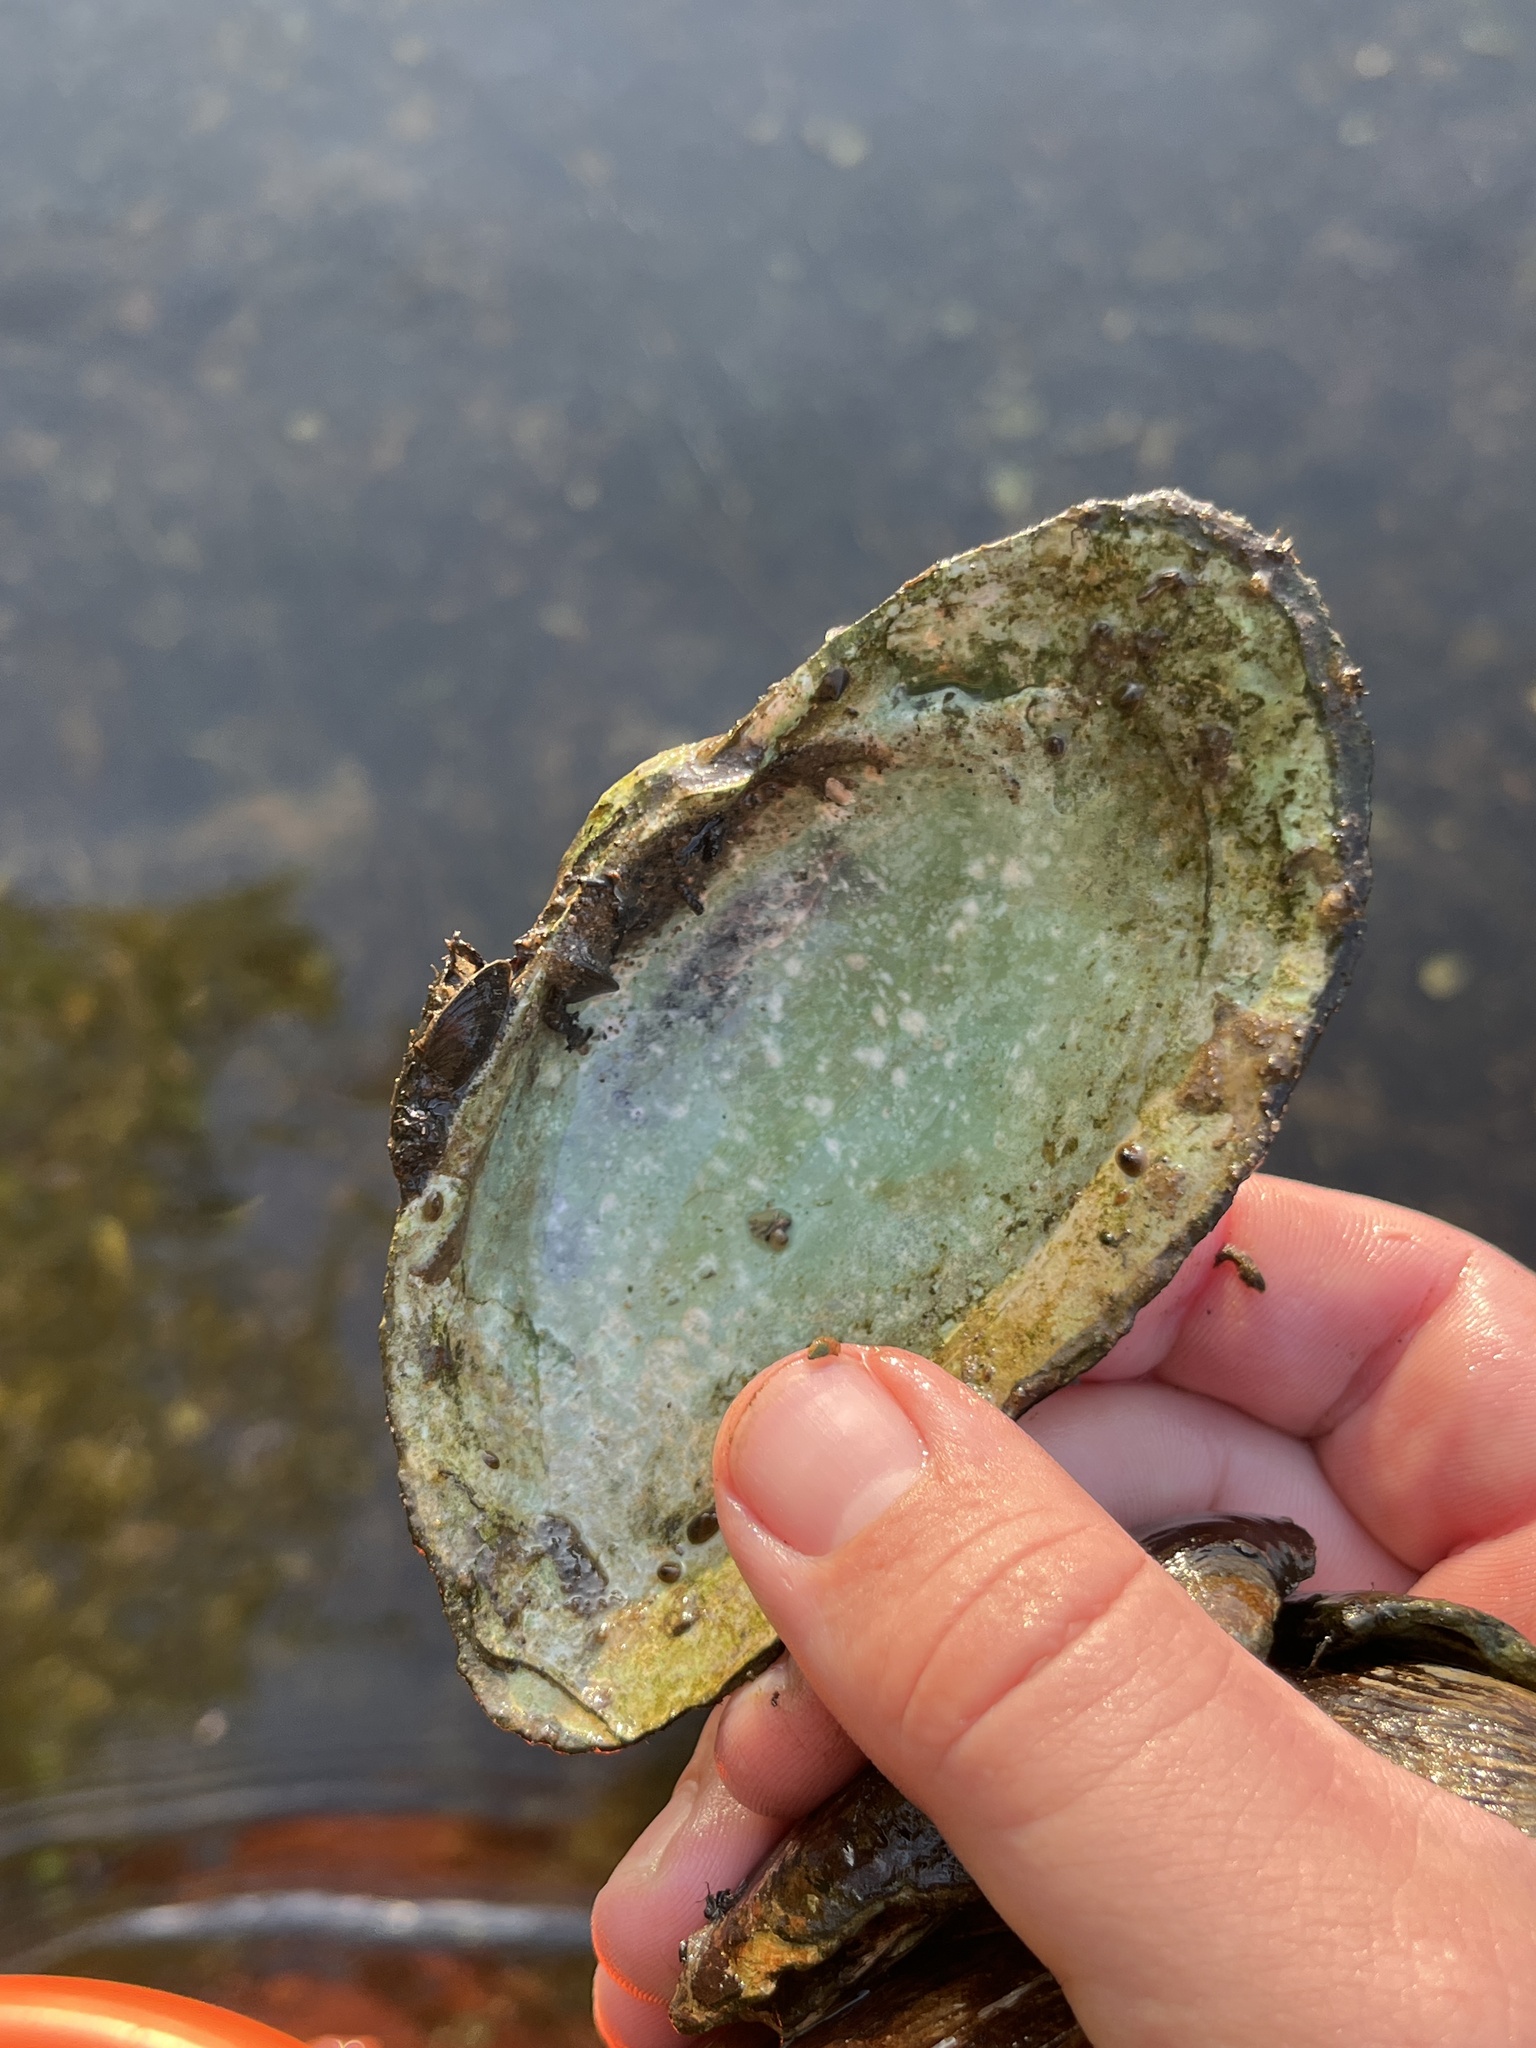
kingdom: Animalia
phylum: Mollusca
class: Bivalvia
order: Unionida
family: Unionidae
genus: Alasmidonta
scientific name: Alasmidonta marginata
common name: Elktoe
